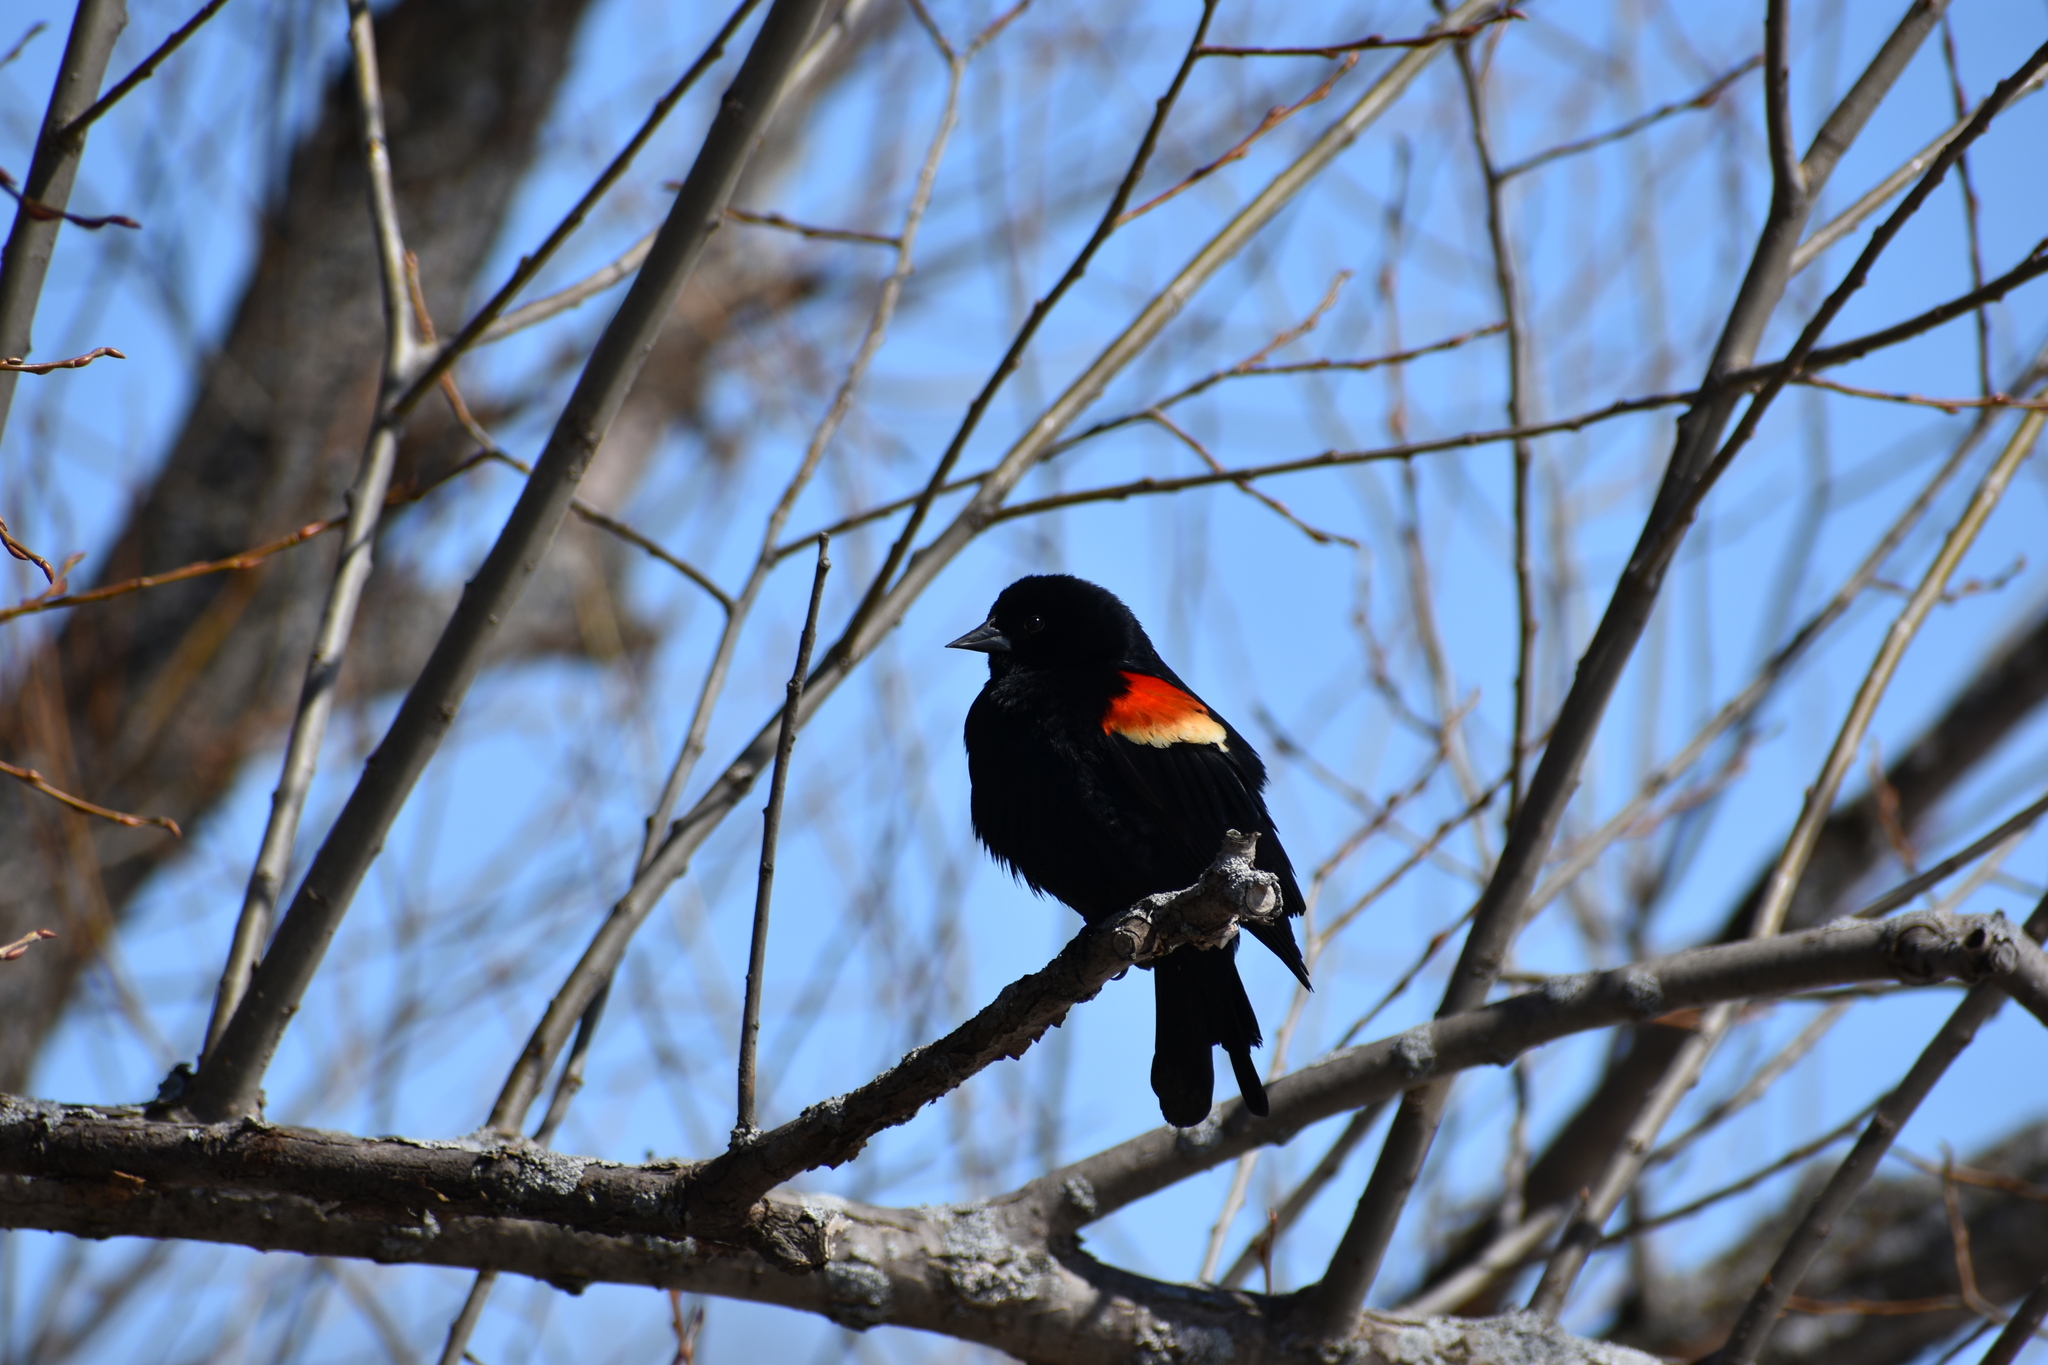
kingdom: Animalia
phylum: Chordata
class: Aves
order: Passeriformes
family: Icteridae
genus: Agelaius
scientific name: Agelaius phoeniceus
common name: Red-winged blackbird
